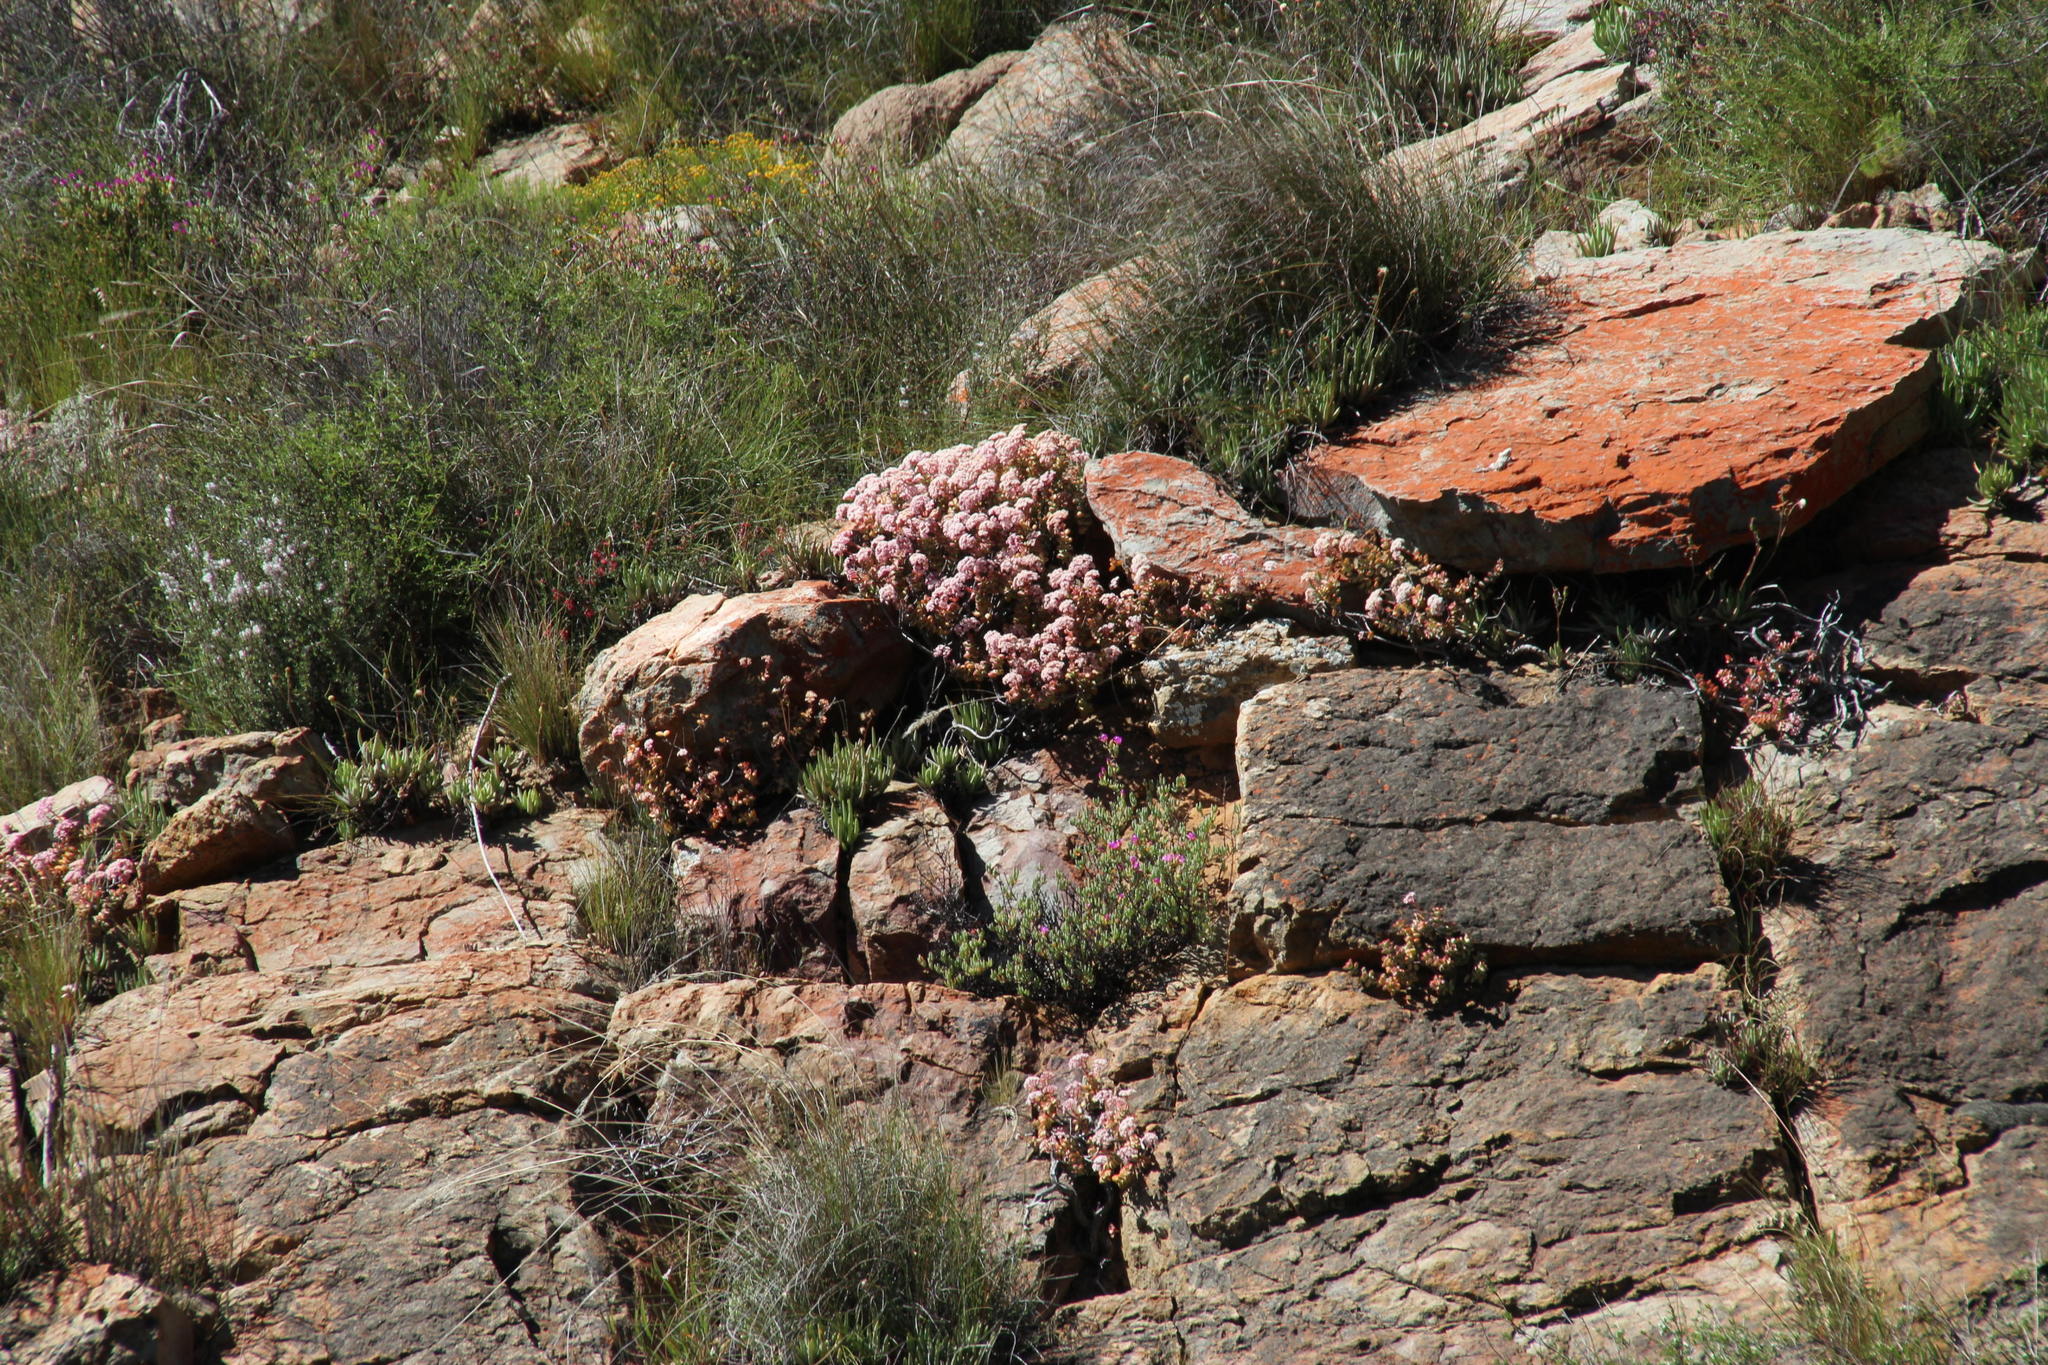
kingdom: Plantae
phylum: Tracheophyta
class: Magnoliopsida
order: Saxifragales
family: Crassulaceae
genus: Crassula
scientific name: Crassula rupestris
